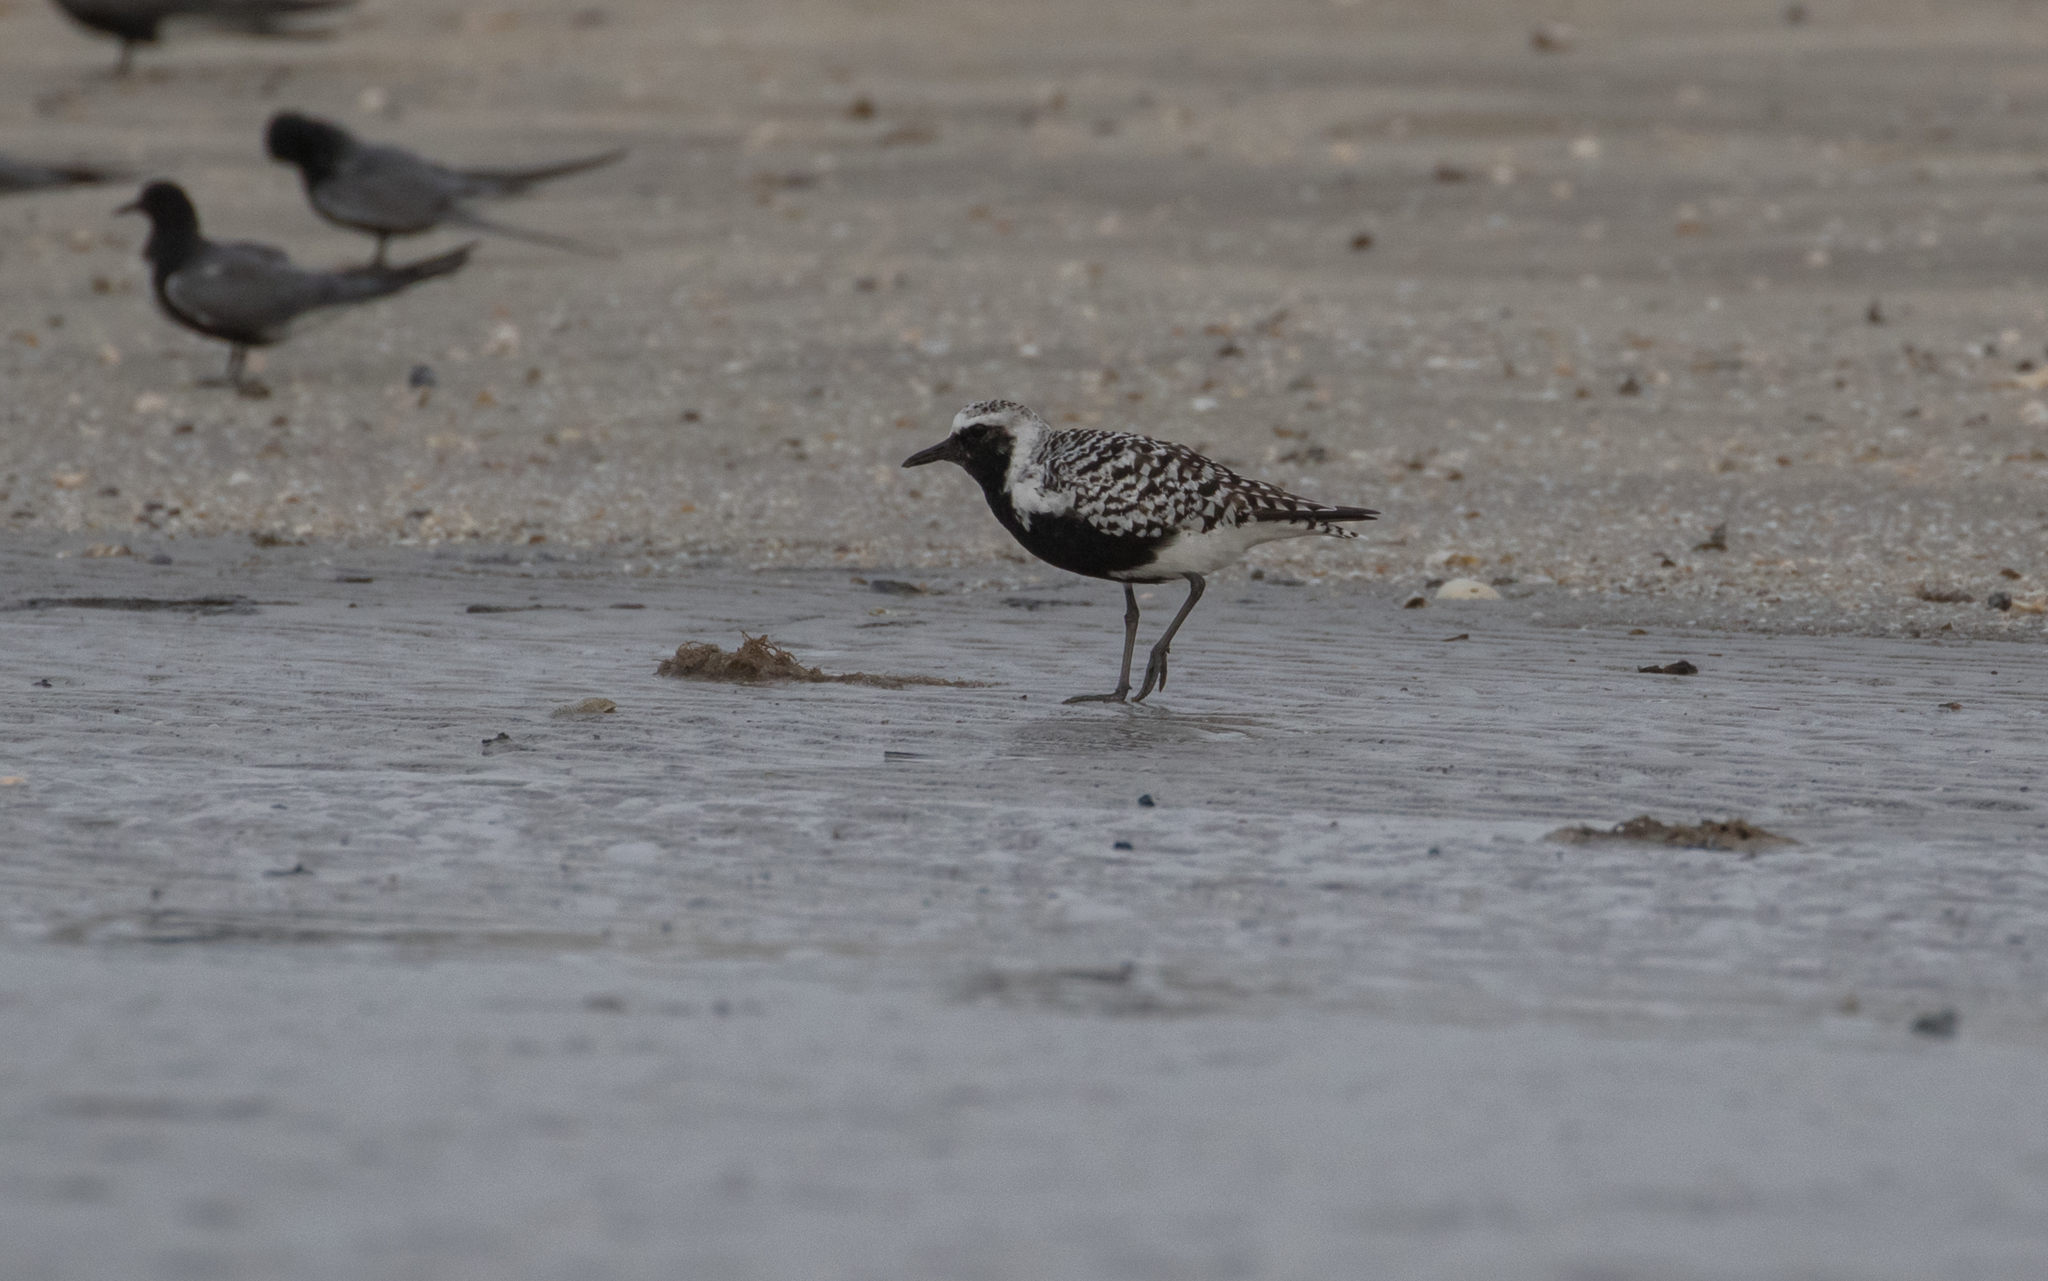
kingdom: Animalia
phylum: Chordata
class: Aves
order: Charadriiformes
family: Charadriidae
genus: Pluvialis
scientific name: Pluvialis squatarola
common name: Grey plover
